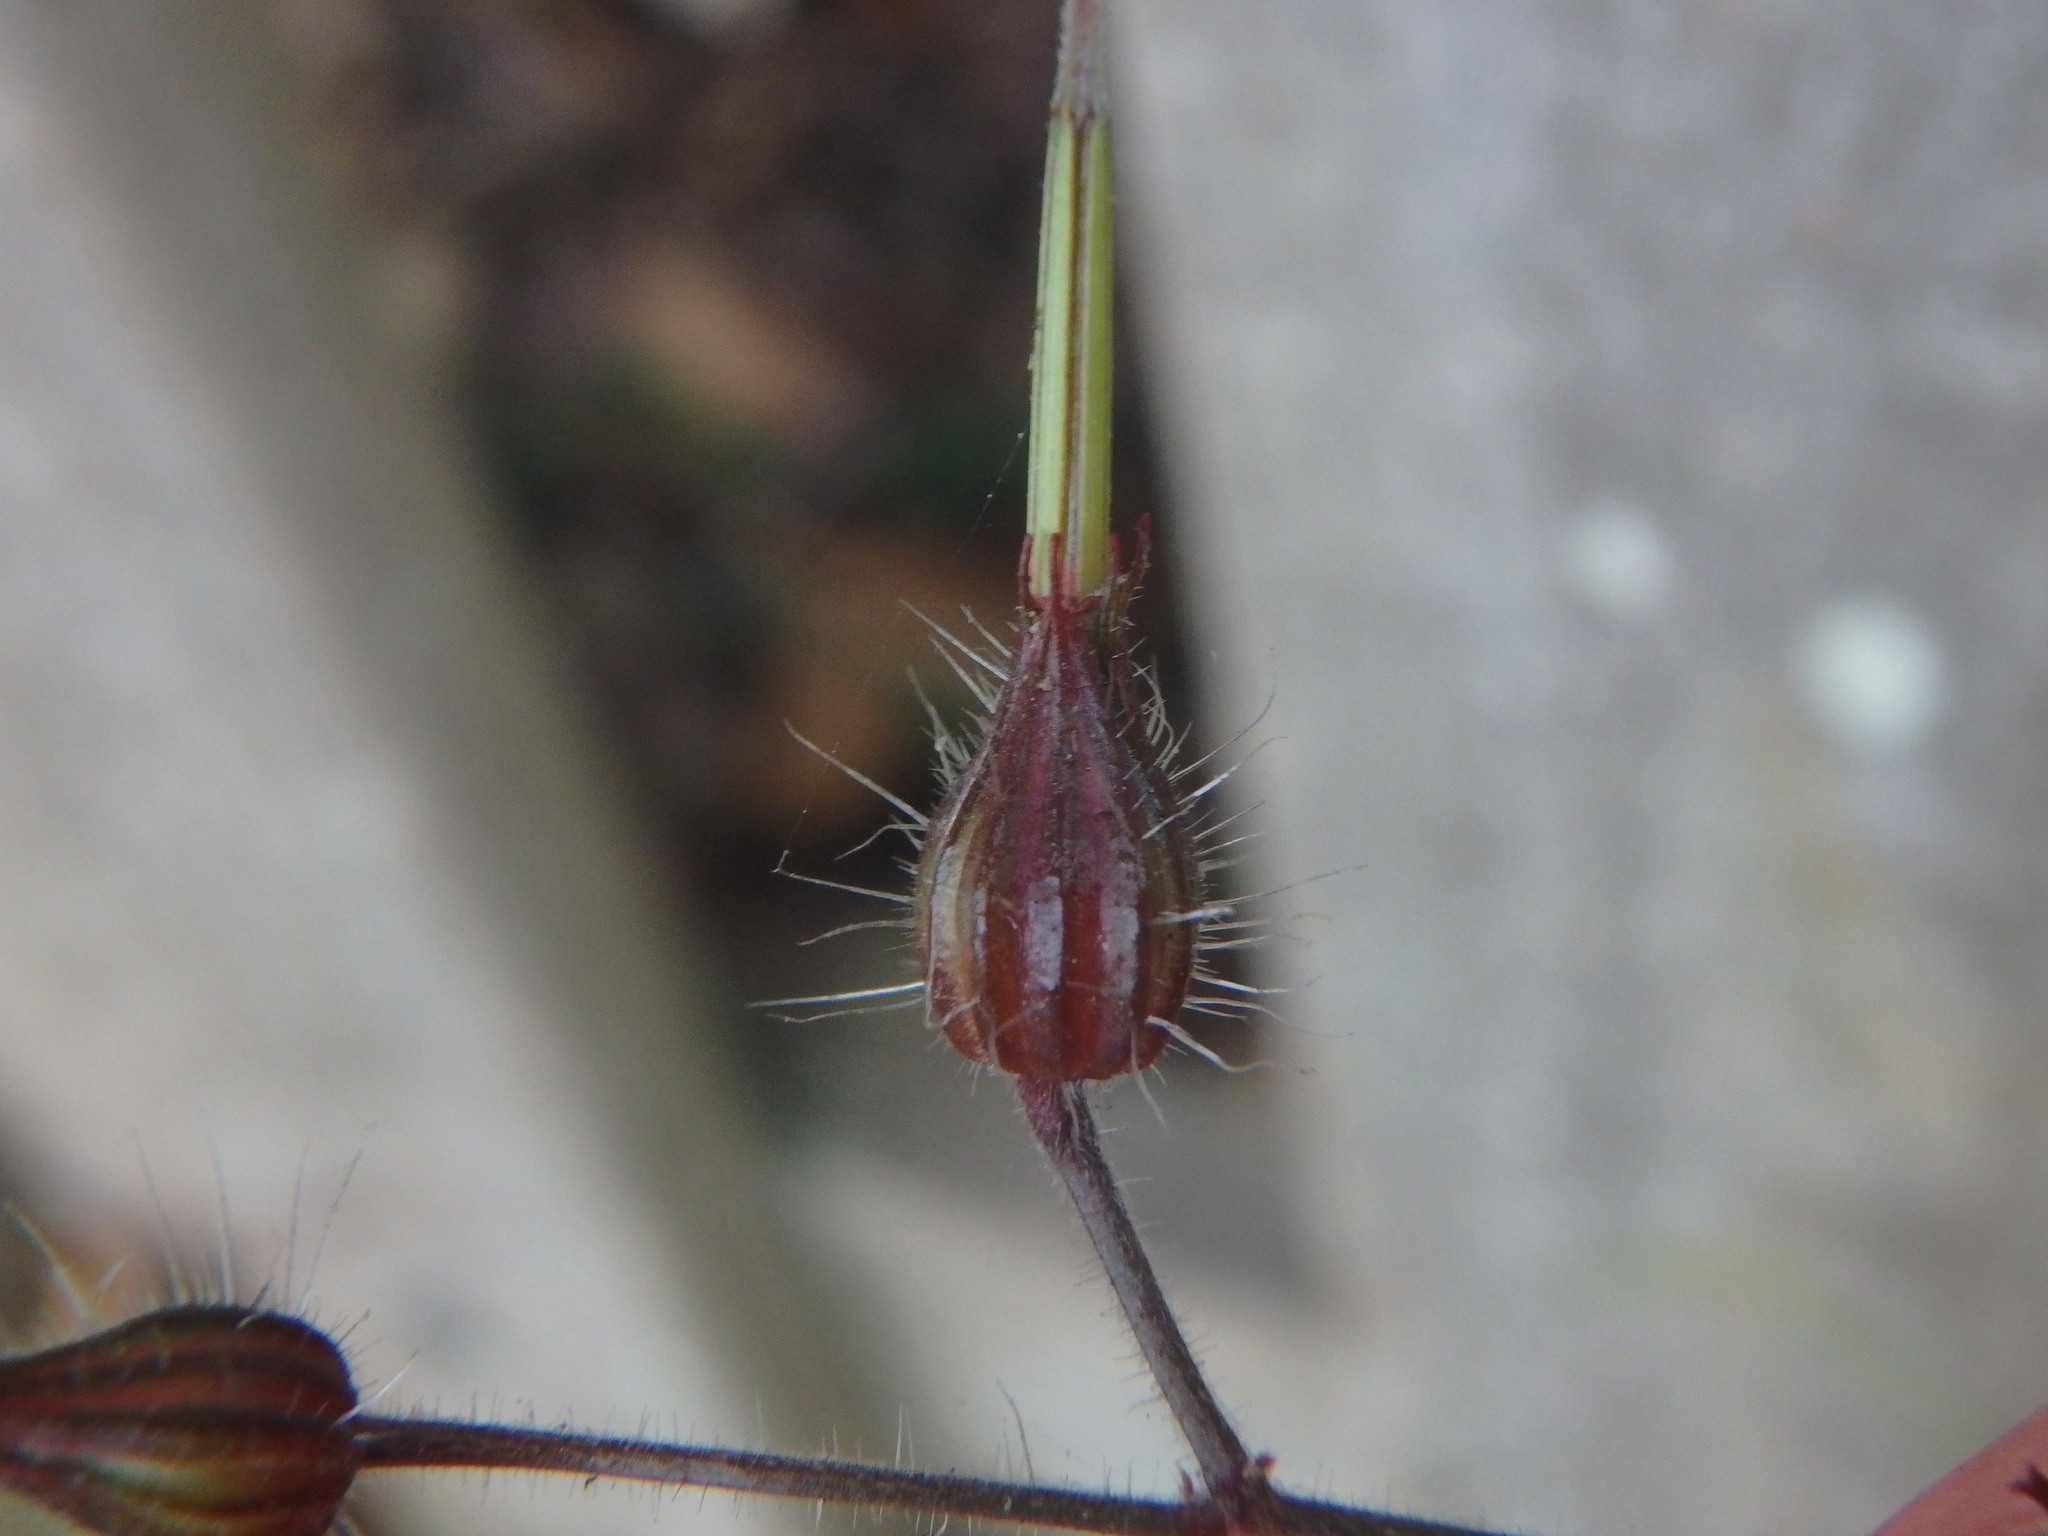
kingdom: Plantae
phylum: Tracheophyta
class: Magnoliopsida
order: Geraniales
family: Geraniaceae
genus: Geranium
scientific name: Geranium robertianum
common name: Herb-robert
